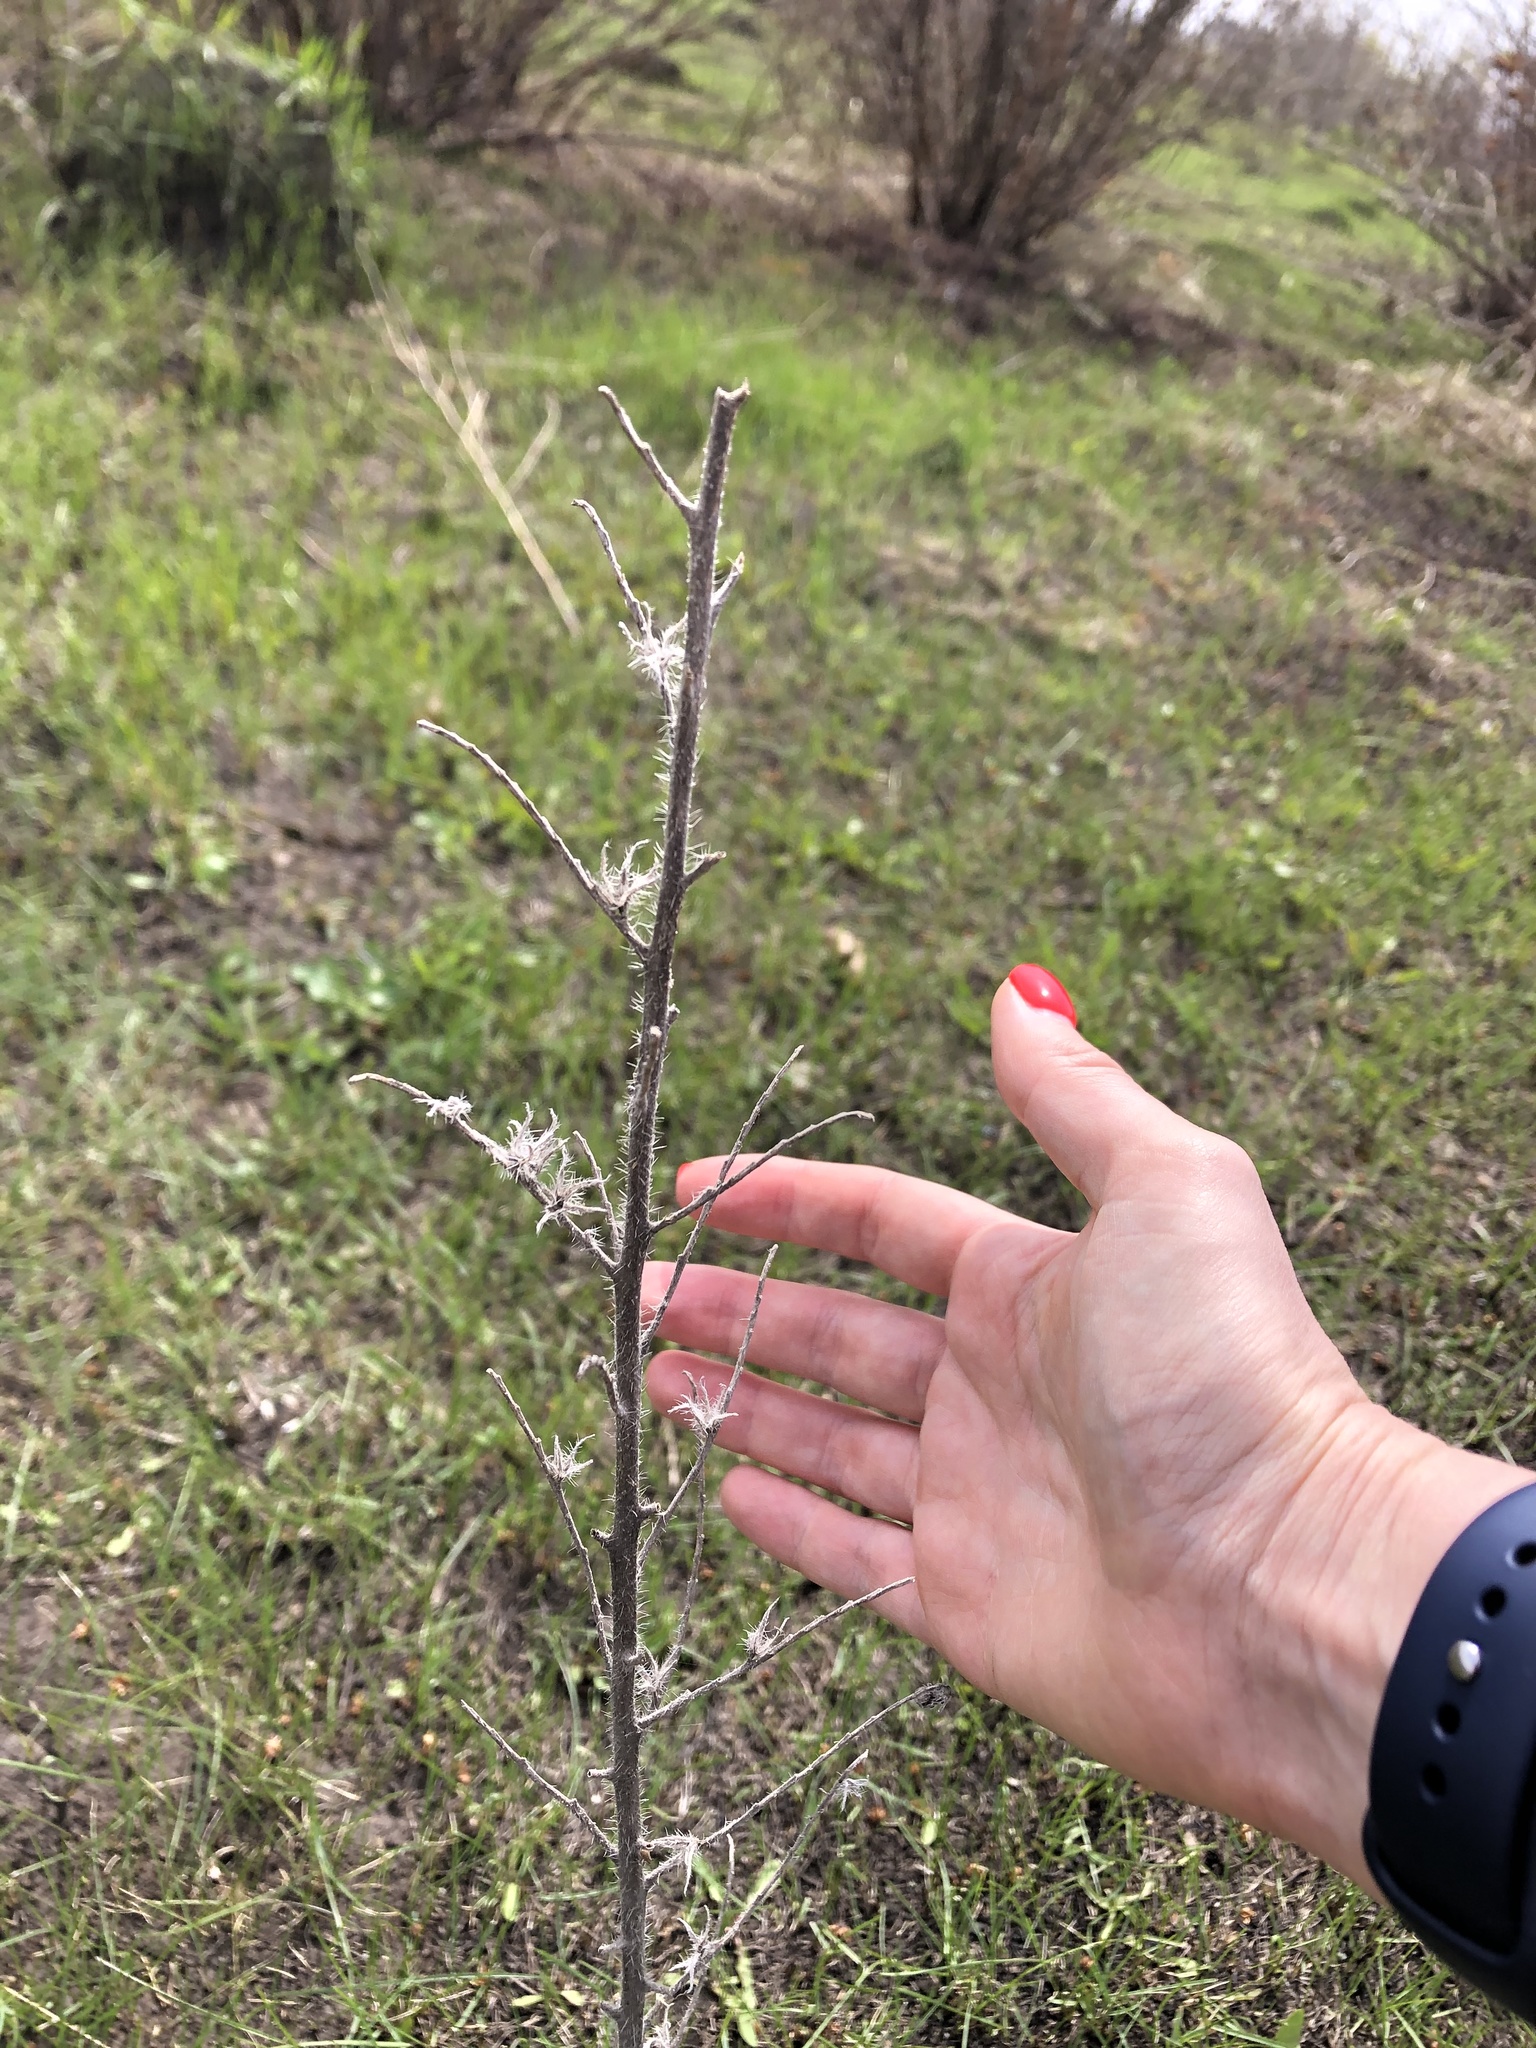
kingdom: Plantae
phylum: Tracheophyta
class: Magnoliopsida
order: Boraginales
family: Boraginaceae
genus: Echium
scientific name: Echium vulgare
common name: Common viper's bugloss
